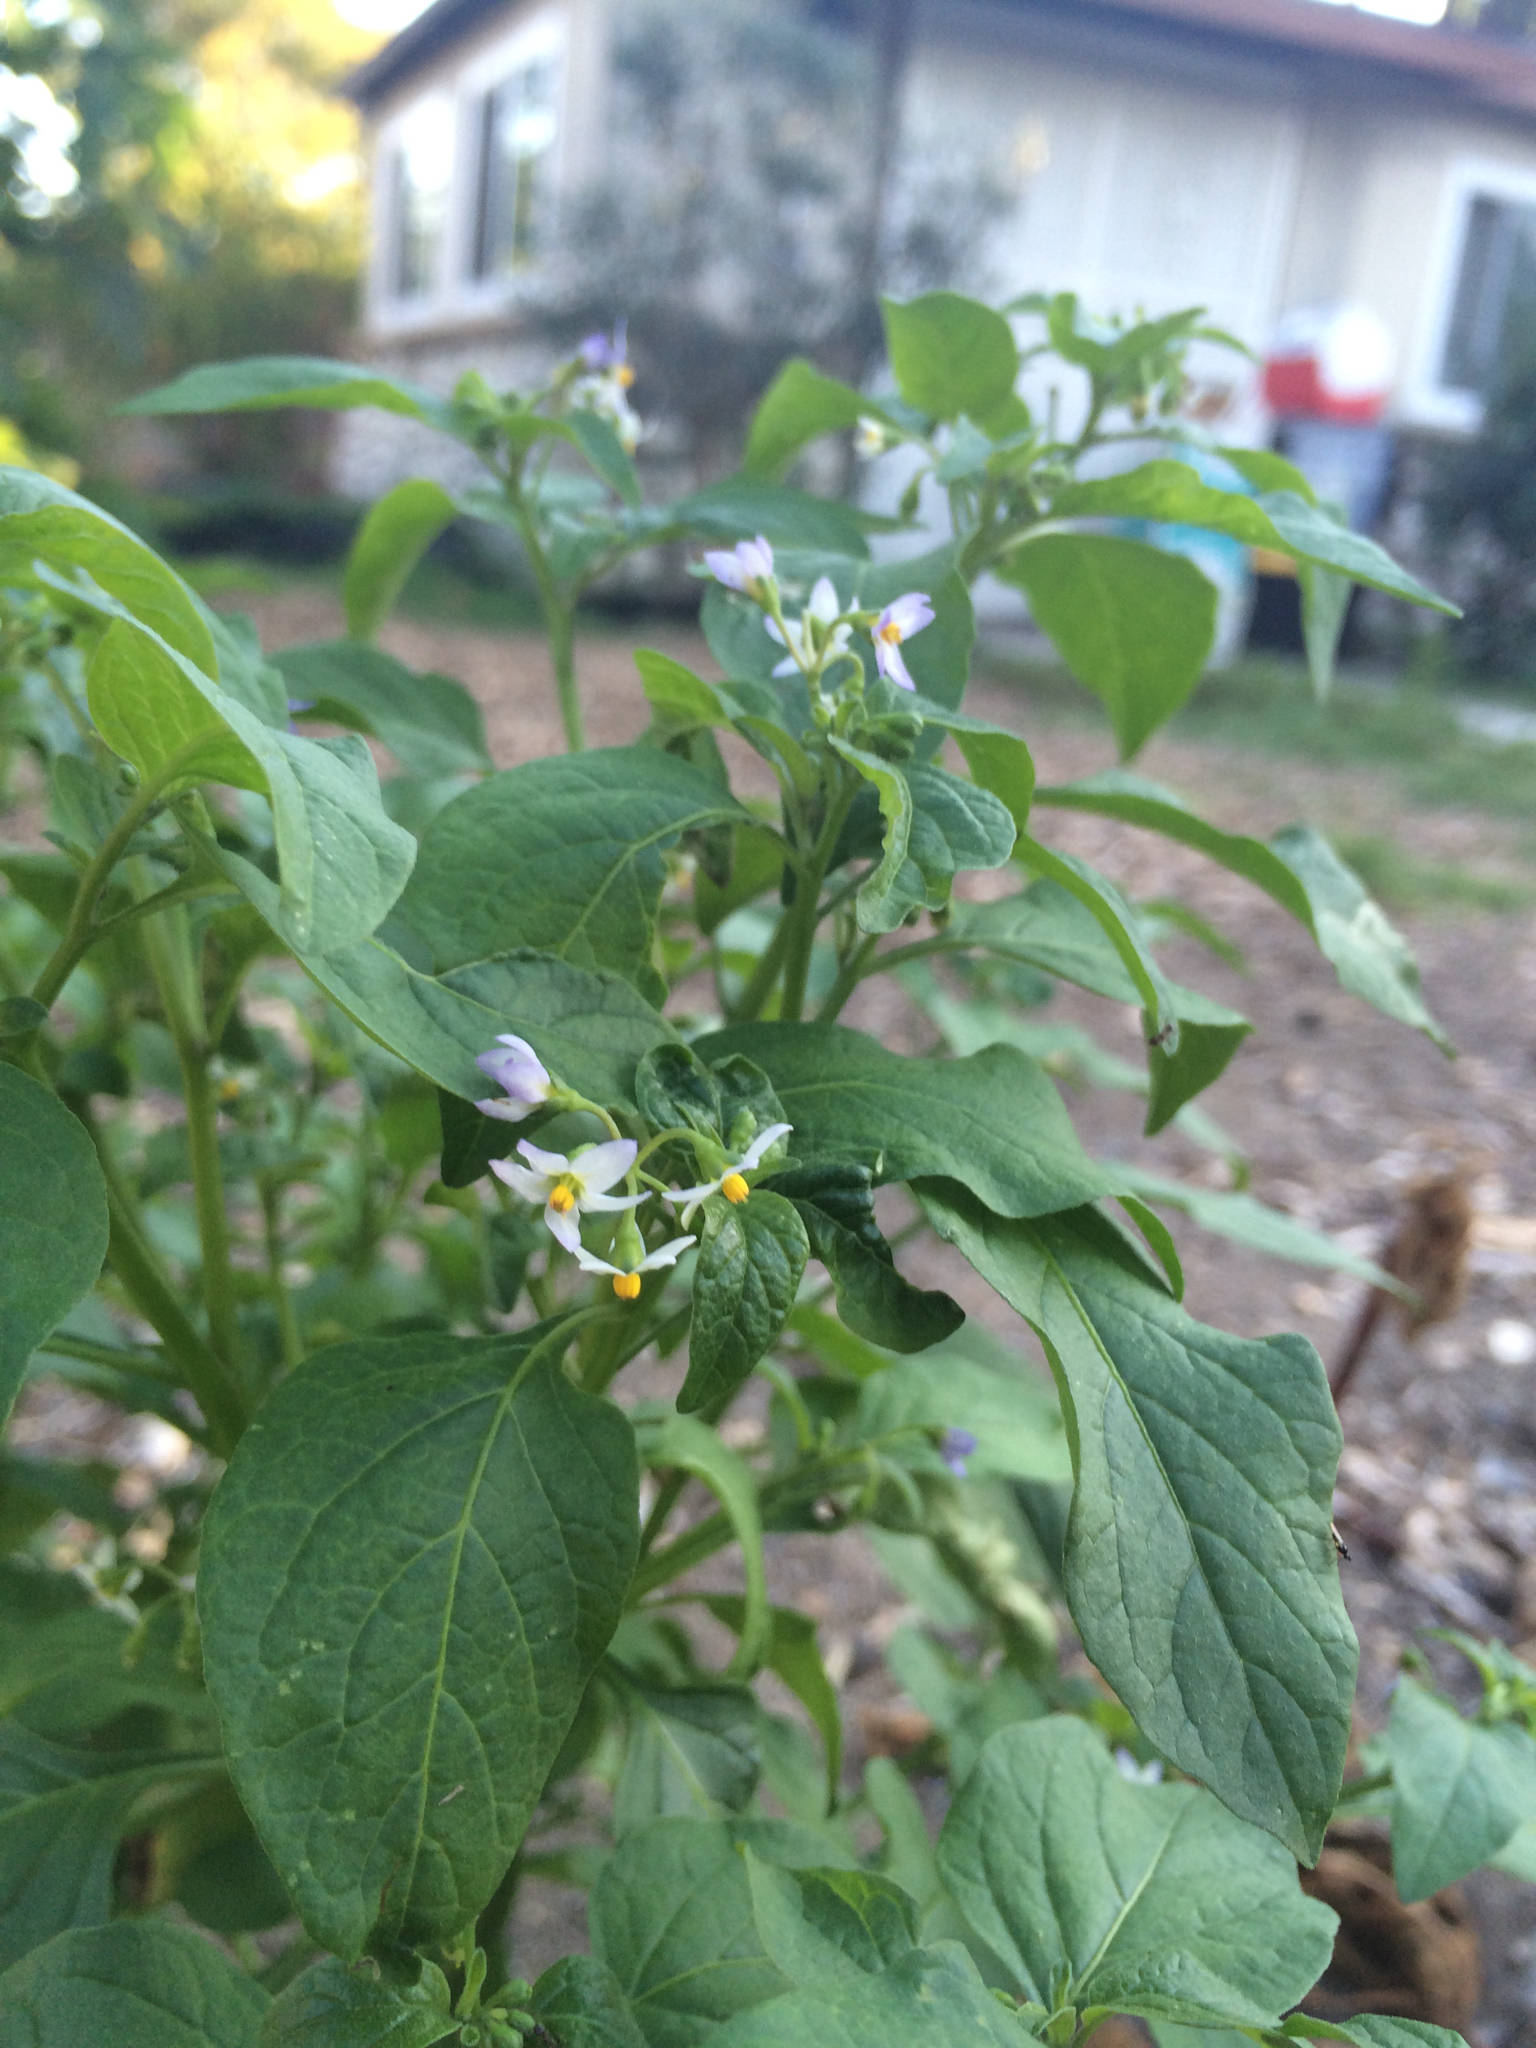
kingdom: Plantae
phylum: Tracheophyta
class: Magnoliopsida
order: Solanales
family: Solanaceae
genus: Solanum
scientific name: Solanum americanum
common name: American black nightshade
